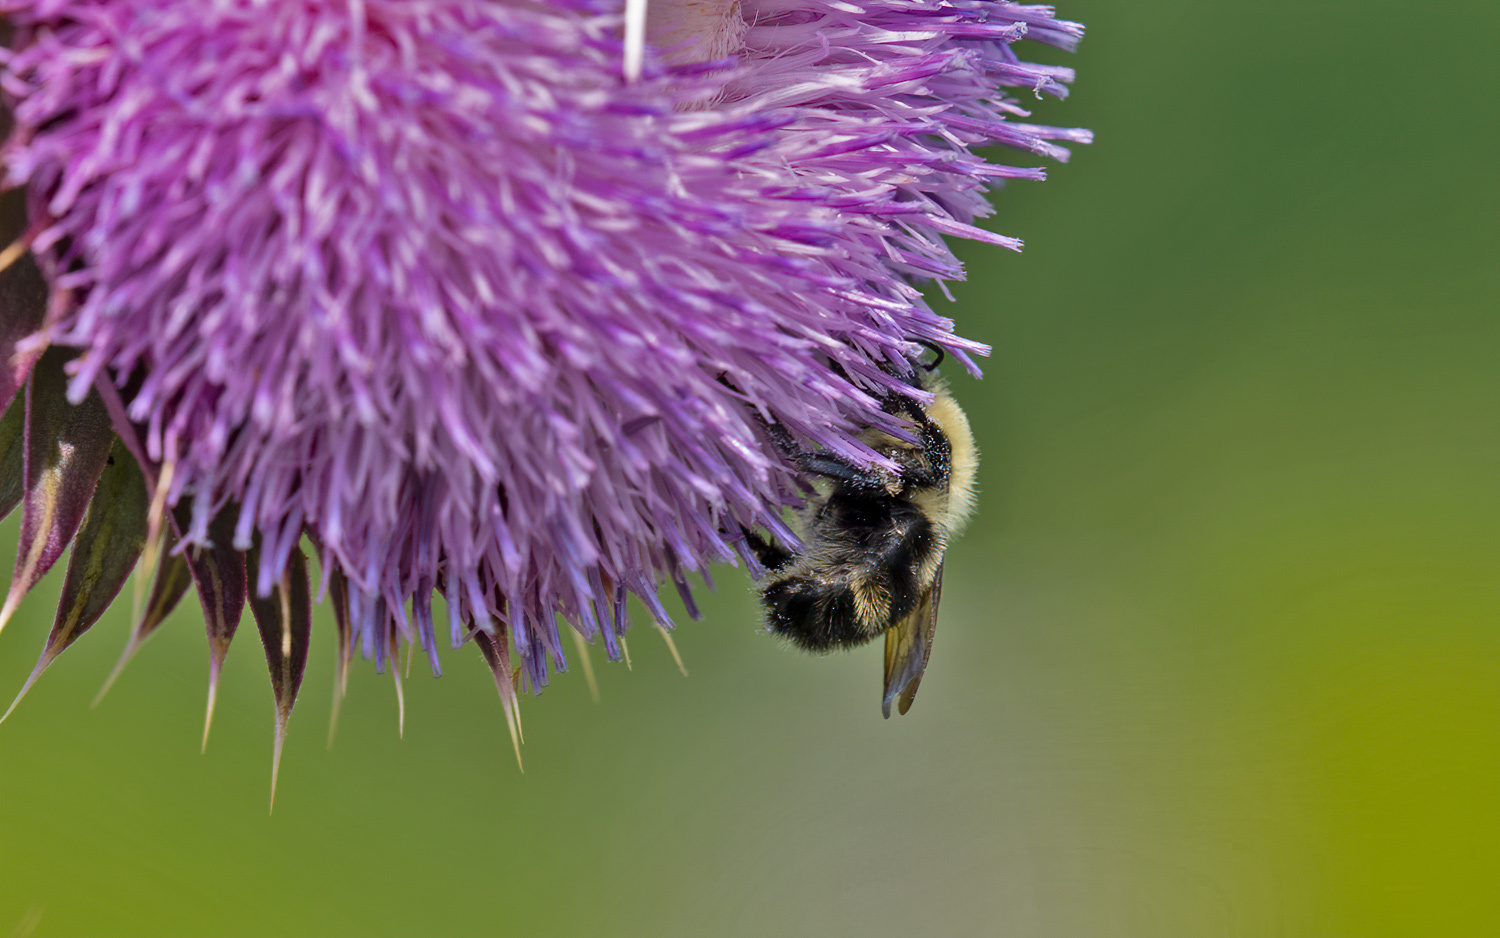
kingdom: Animalia
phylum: Arthropoda
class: Insecta
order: Hymenoptera
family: Apidae
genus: Bombus
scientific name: Bombus bimaculatus
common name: Two-spotted bumble bee
